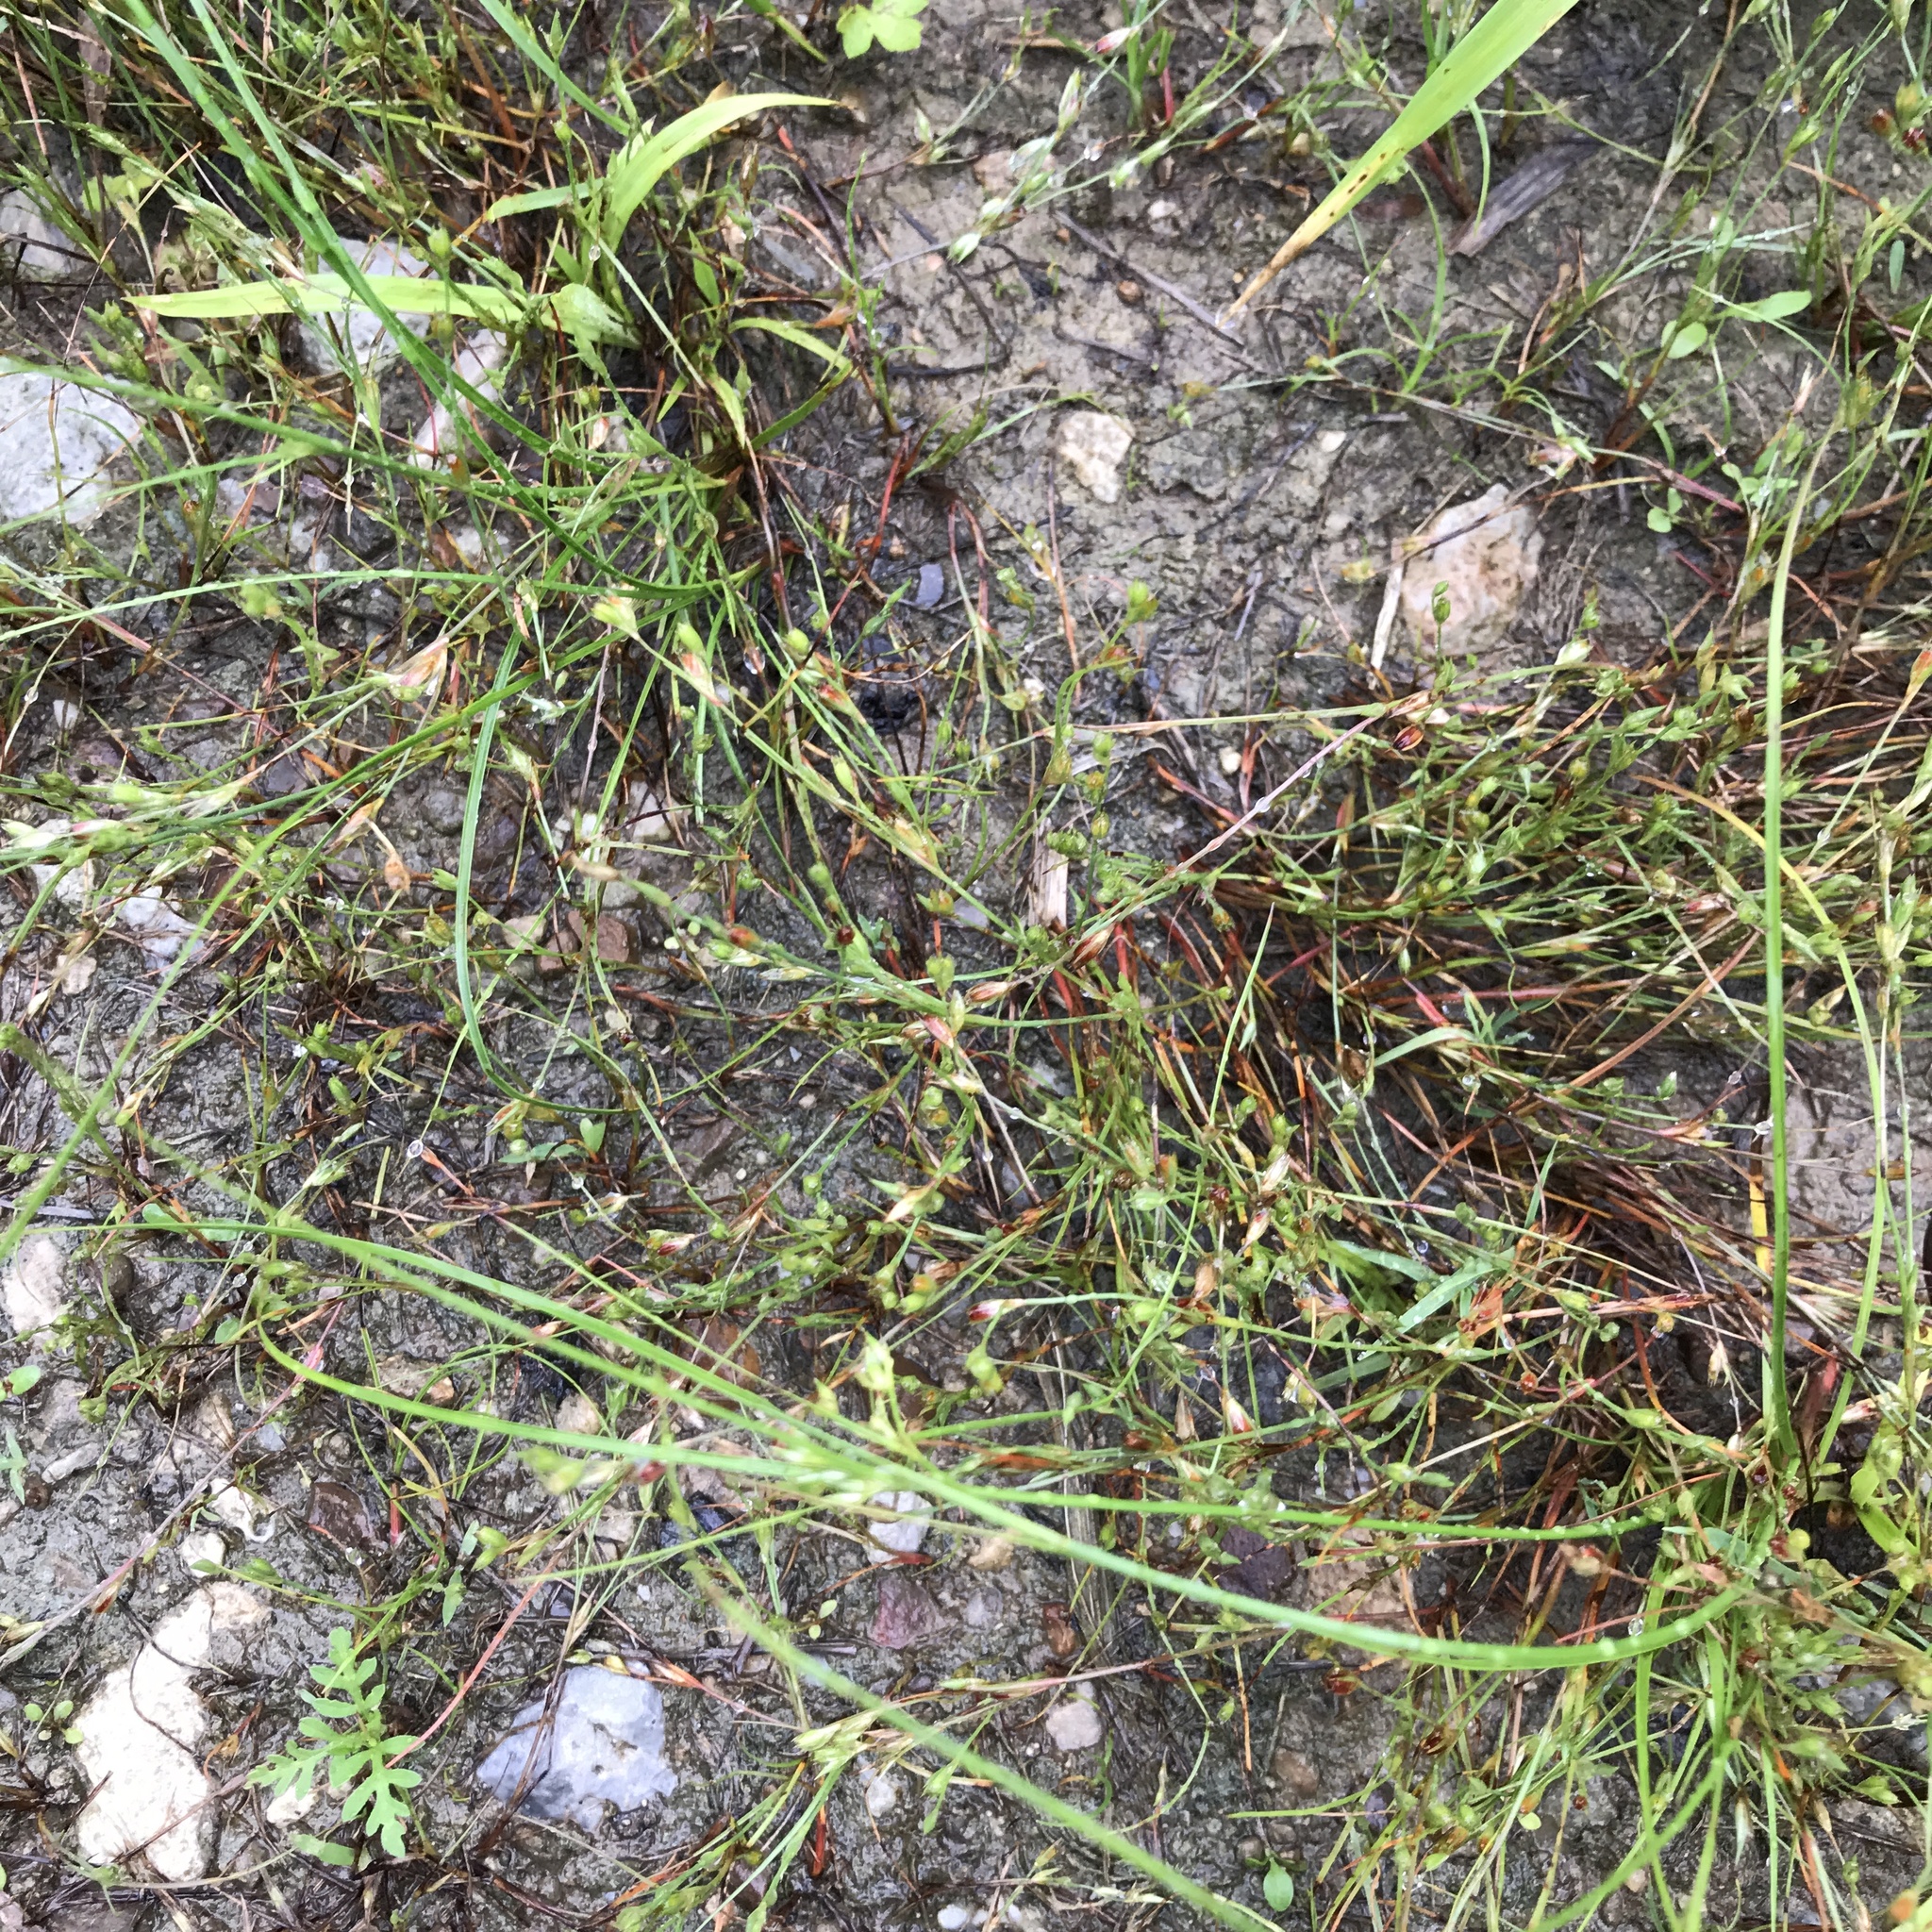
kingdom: Plantae
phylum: Tracheophyta
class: Liliopsida
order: Poales
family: Juncaceae
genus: Juncus
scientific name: Juncus bufonius
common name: Toad rush
